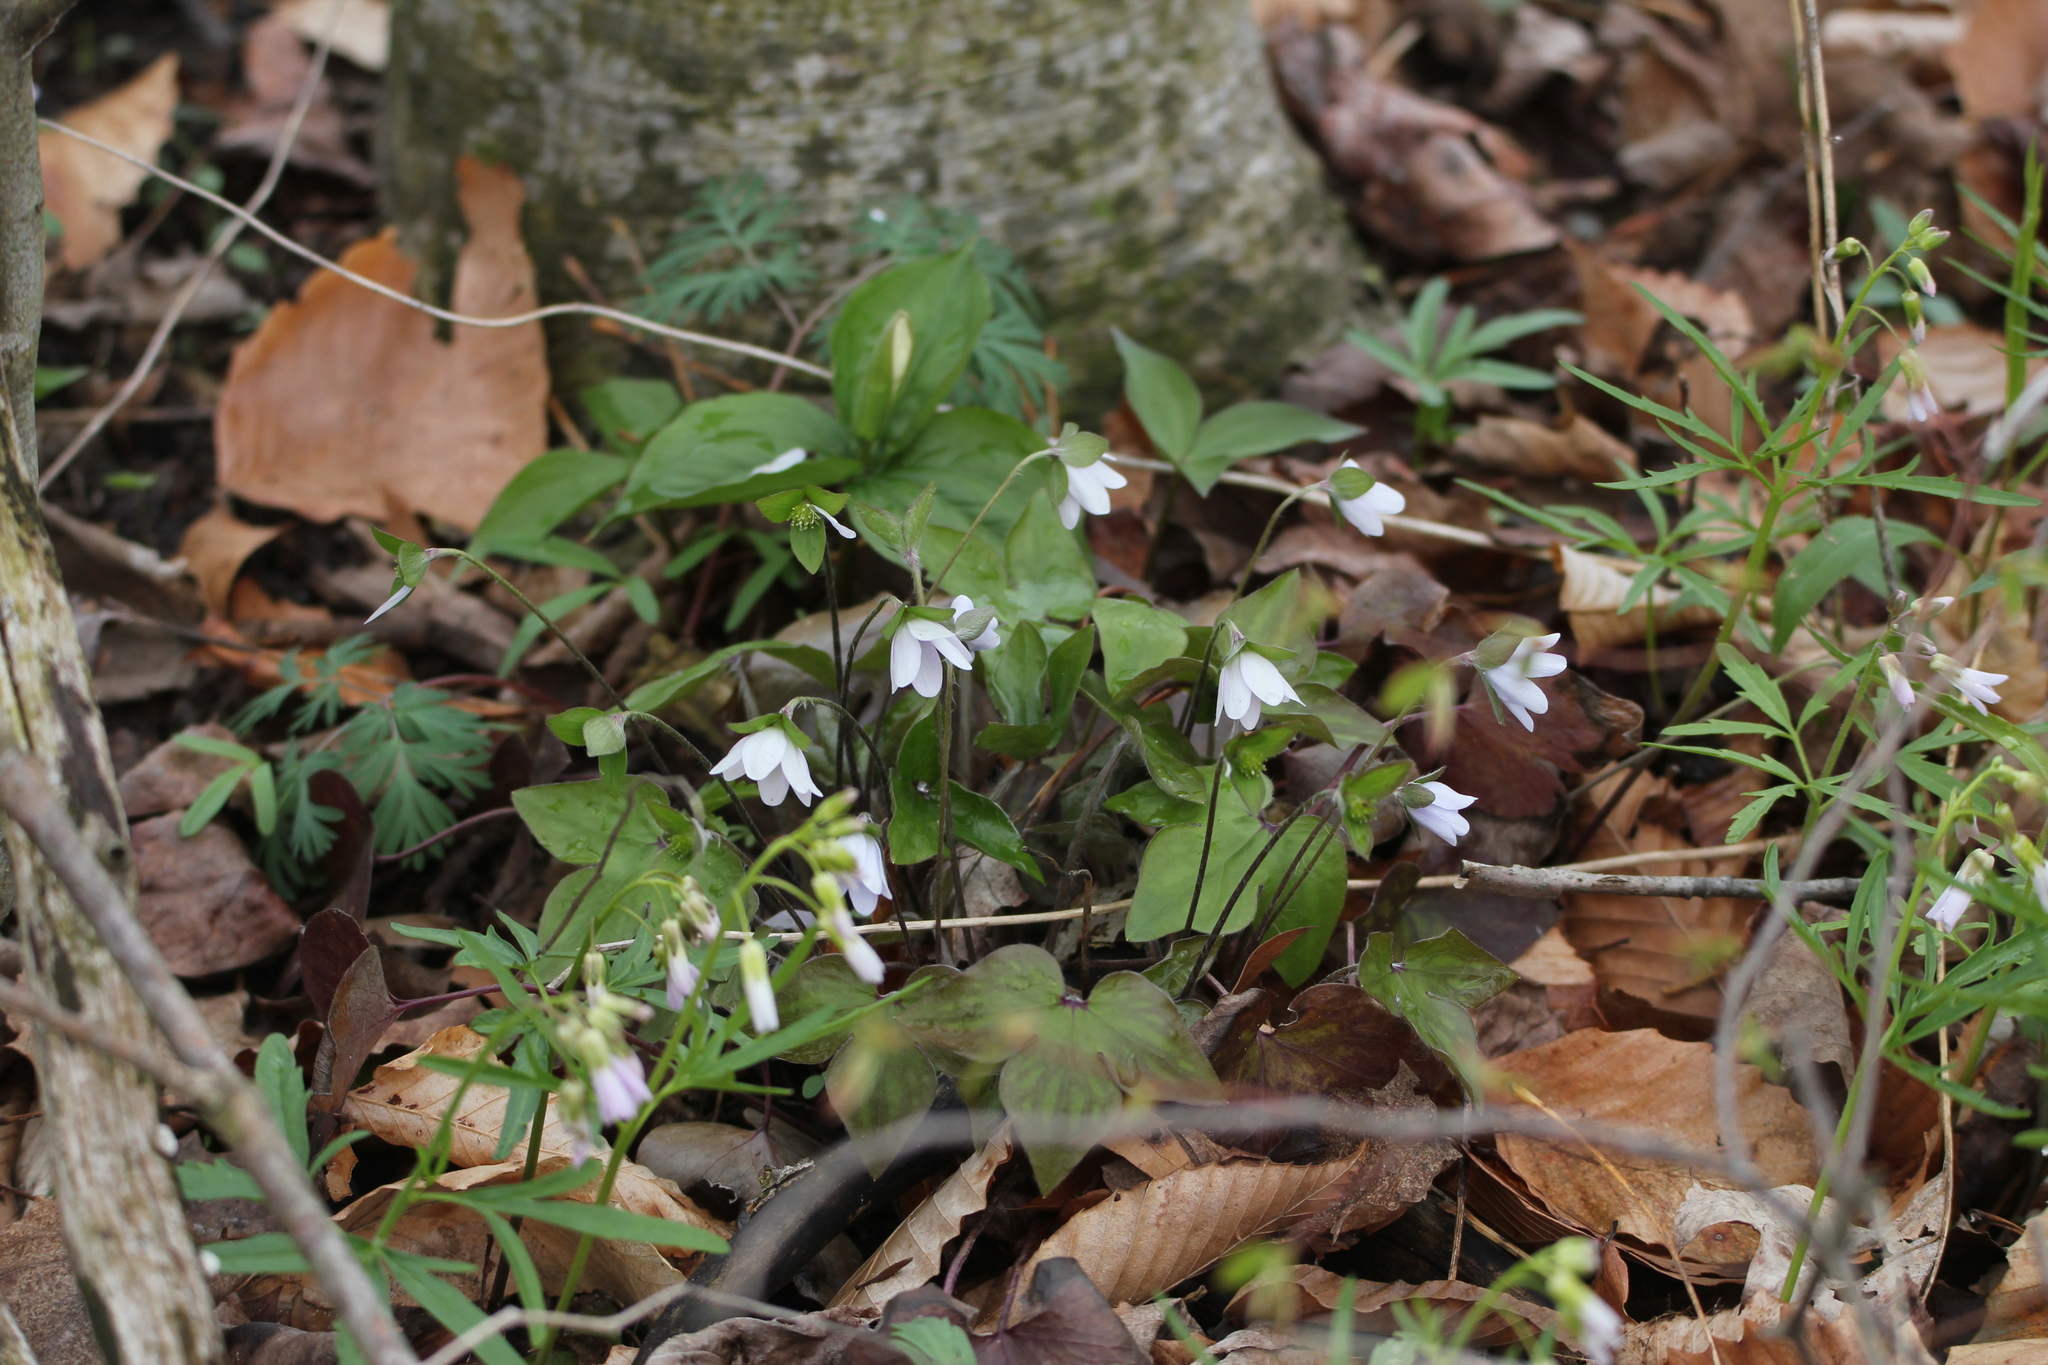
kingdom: Plantae
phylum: Tracheophyta
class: Magnoliopsida
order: Ranunculales
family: Ranunculaceae
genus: Hepatica
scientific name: Hepatica acutiloba
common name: Sharp-lobed hepatica
